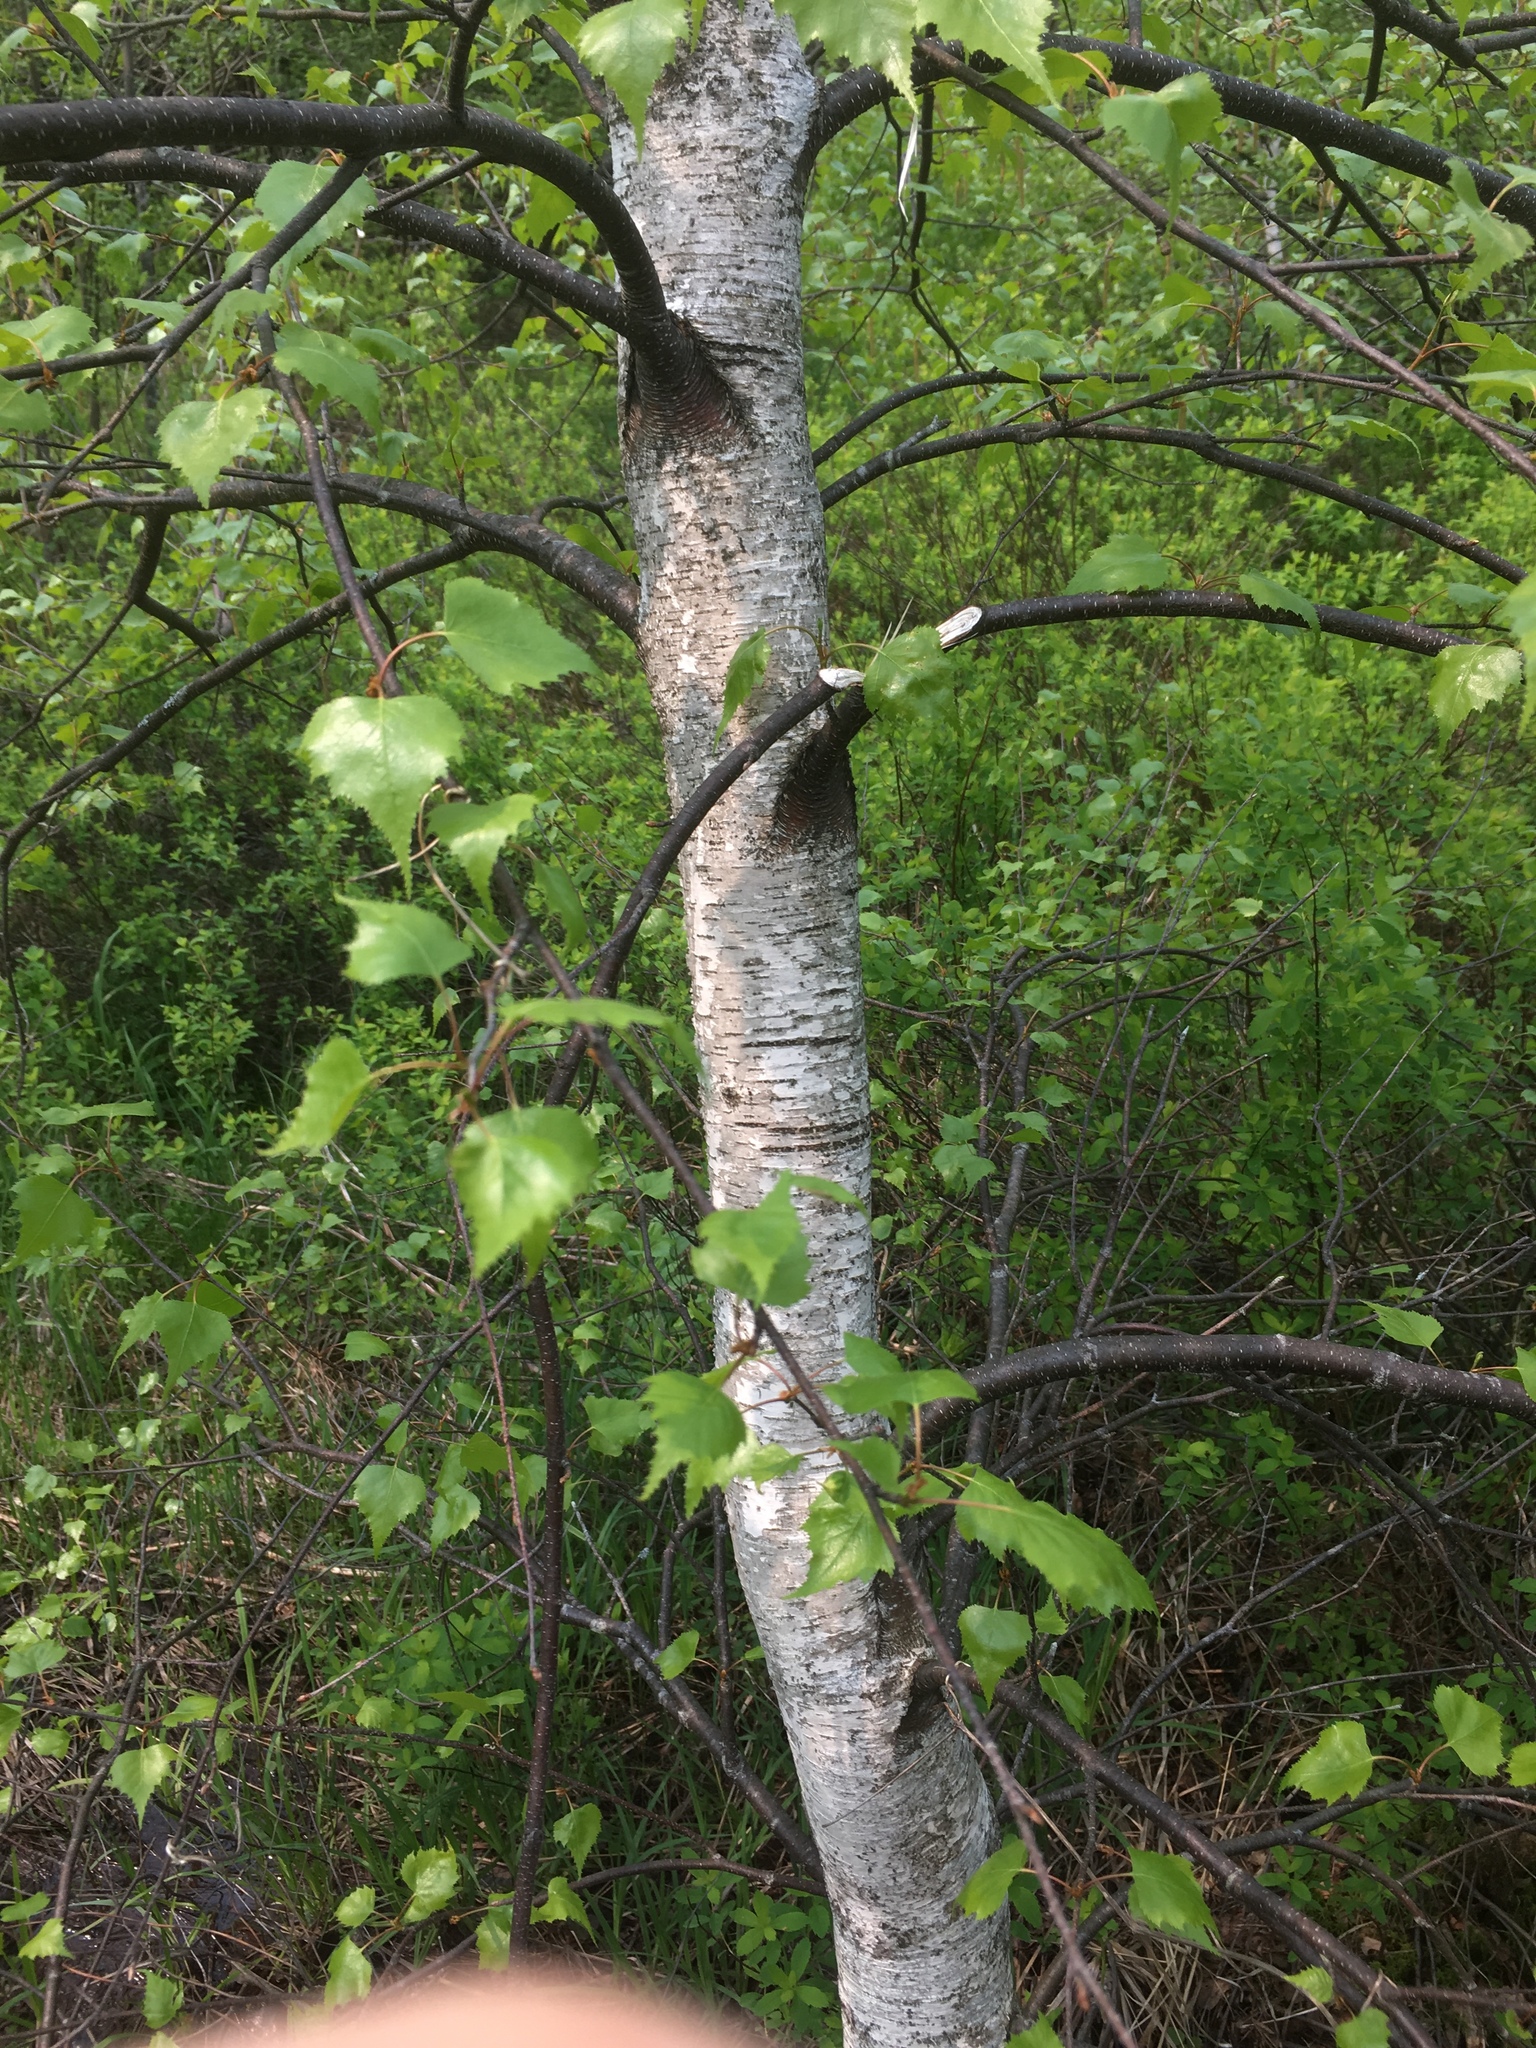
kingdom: Plantae
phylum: Tracheophyta
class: Magnoliopsida
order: Fagales
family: Betulaceae
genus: Betula
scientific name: Betula populifolia
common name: Fire birch
